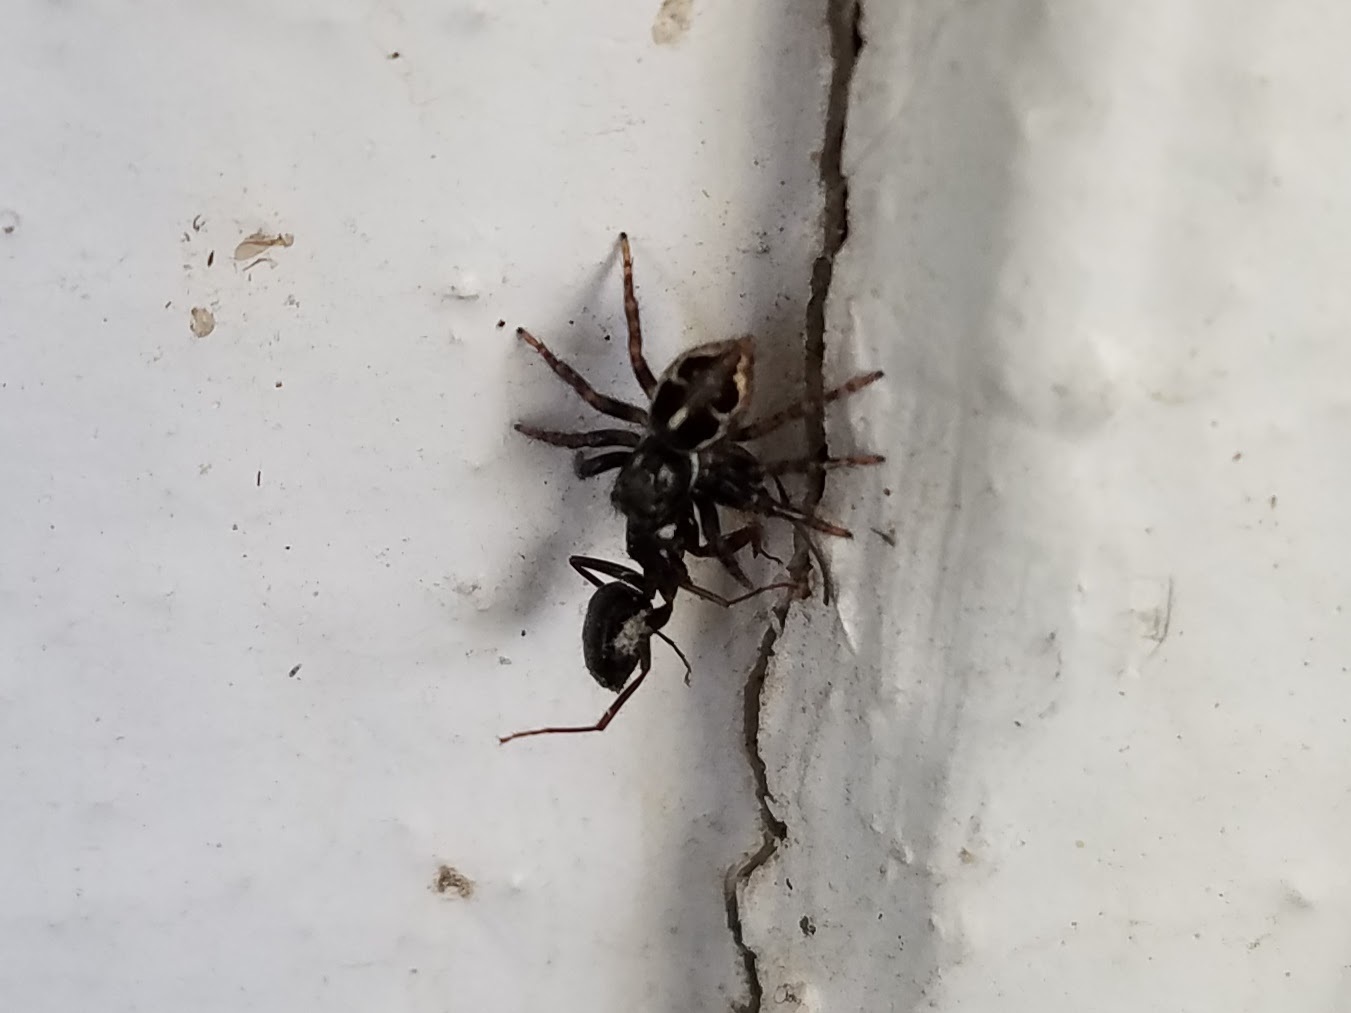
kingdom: Animalia
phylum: Arthropoda
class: Arachnida
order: Araneae
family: Salticidae
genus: Anasaitis
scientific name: Anasaitis canosa
